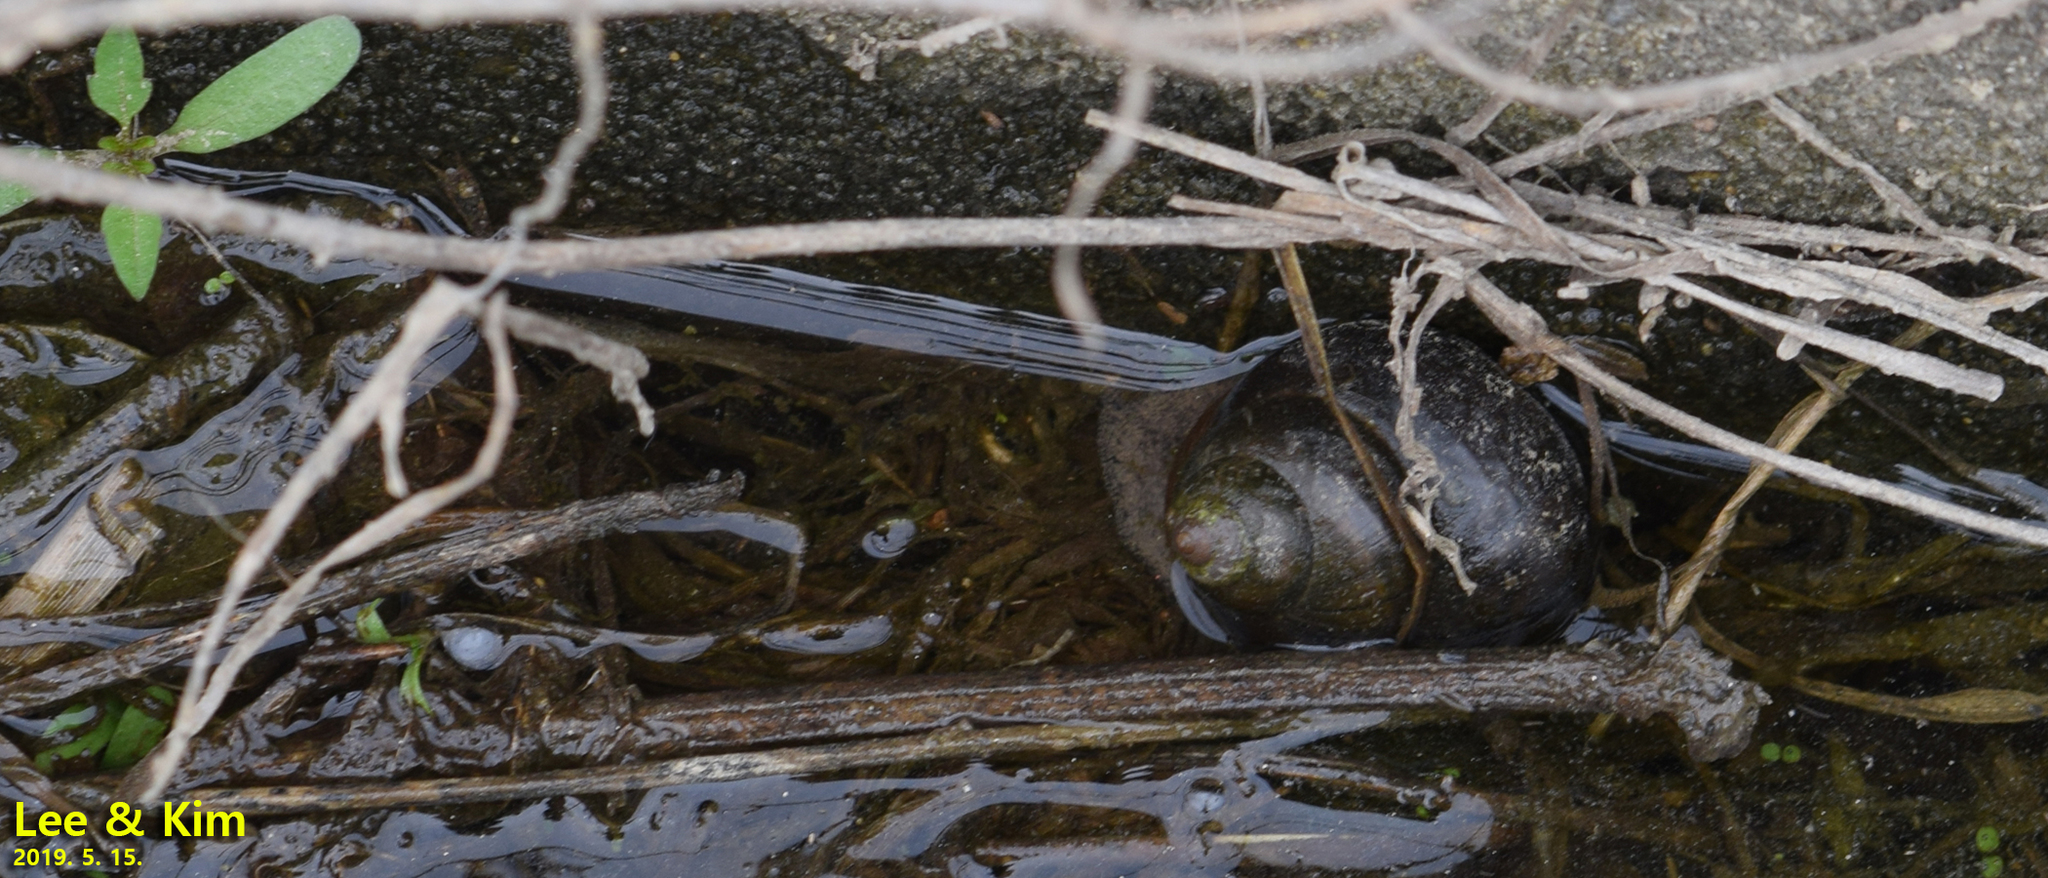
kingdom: Animalia
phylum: Mollusca
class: Gastropoda
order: Architaenioglossa
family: Viviparidae
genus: Cipangopaludina
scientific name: Cipangopaludina chinensis
